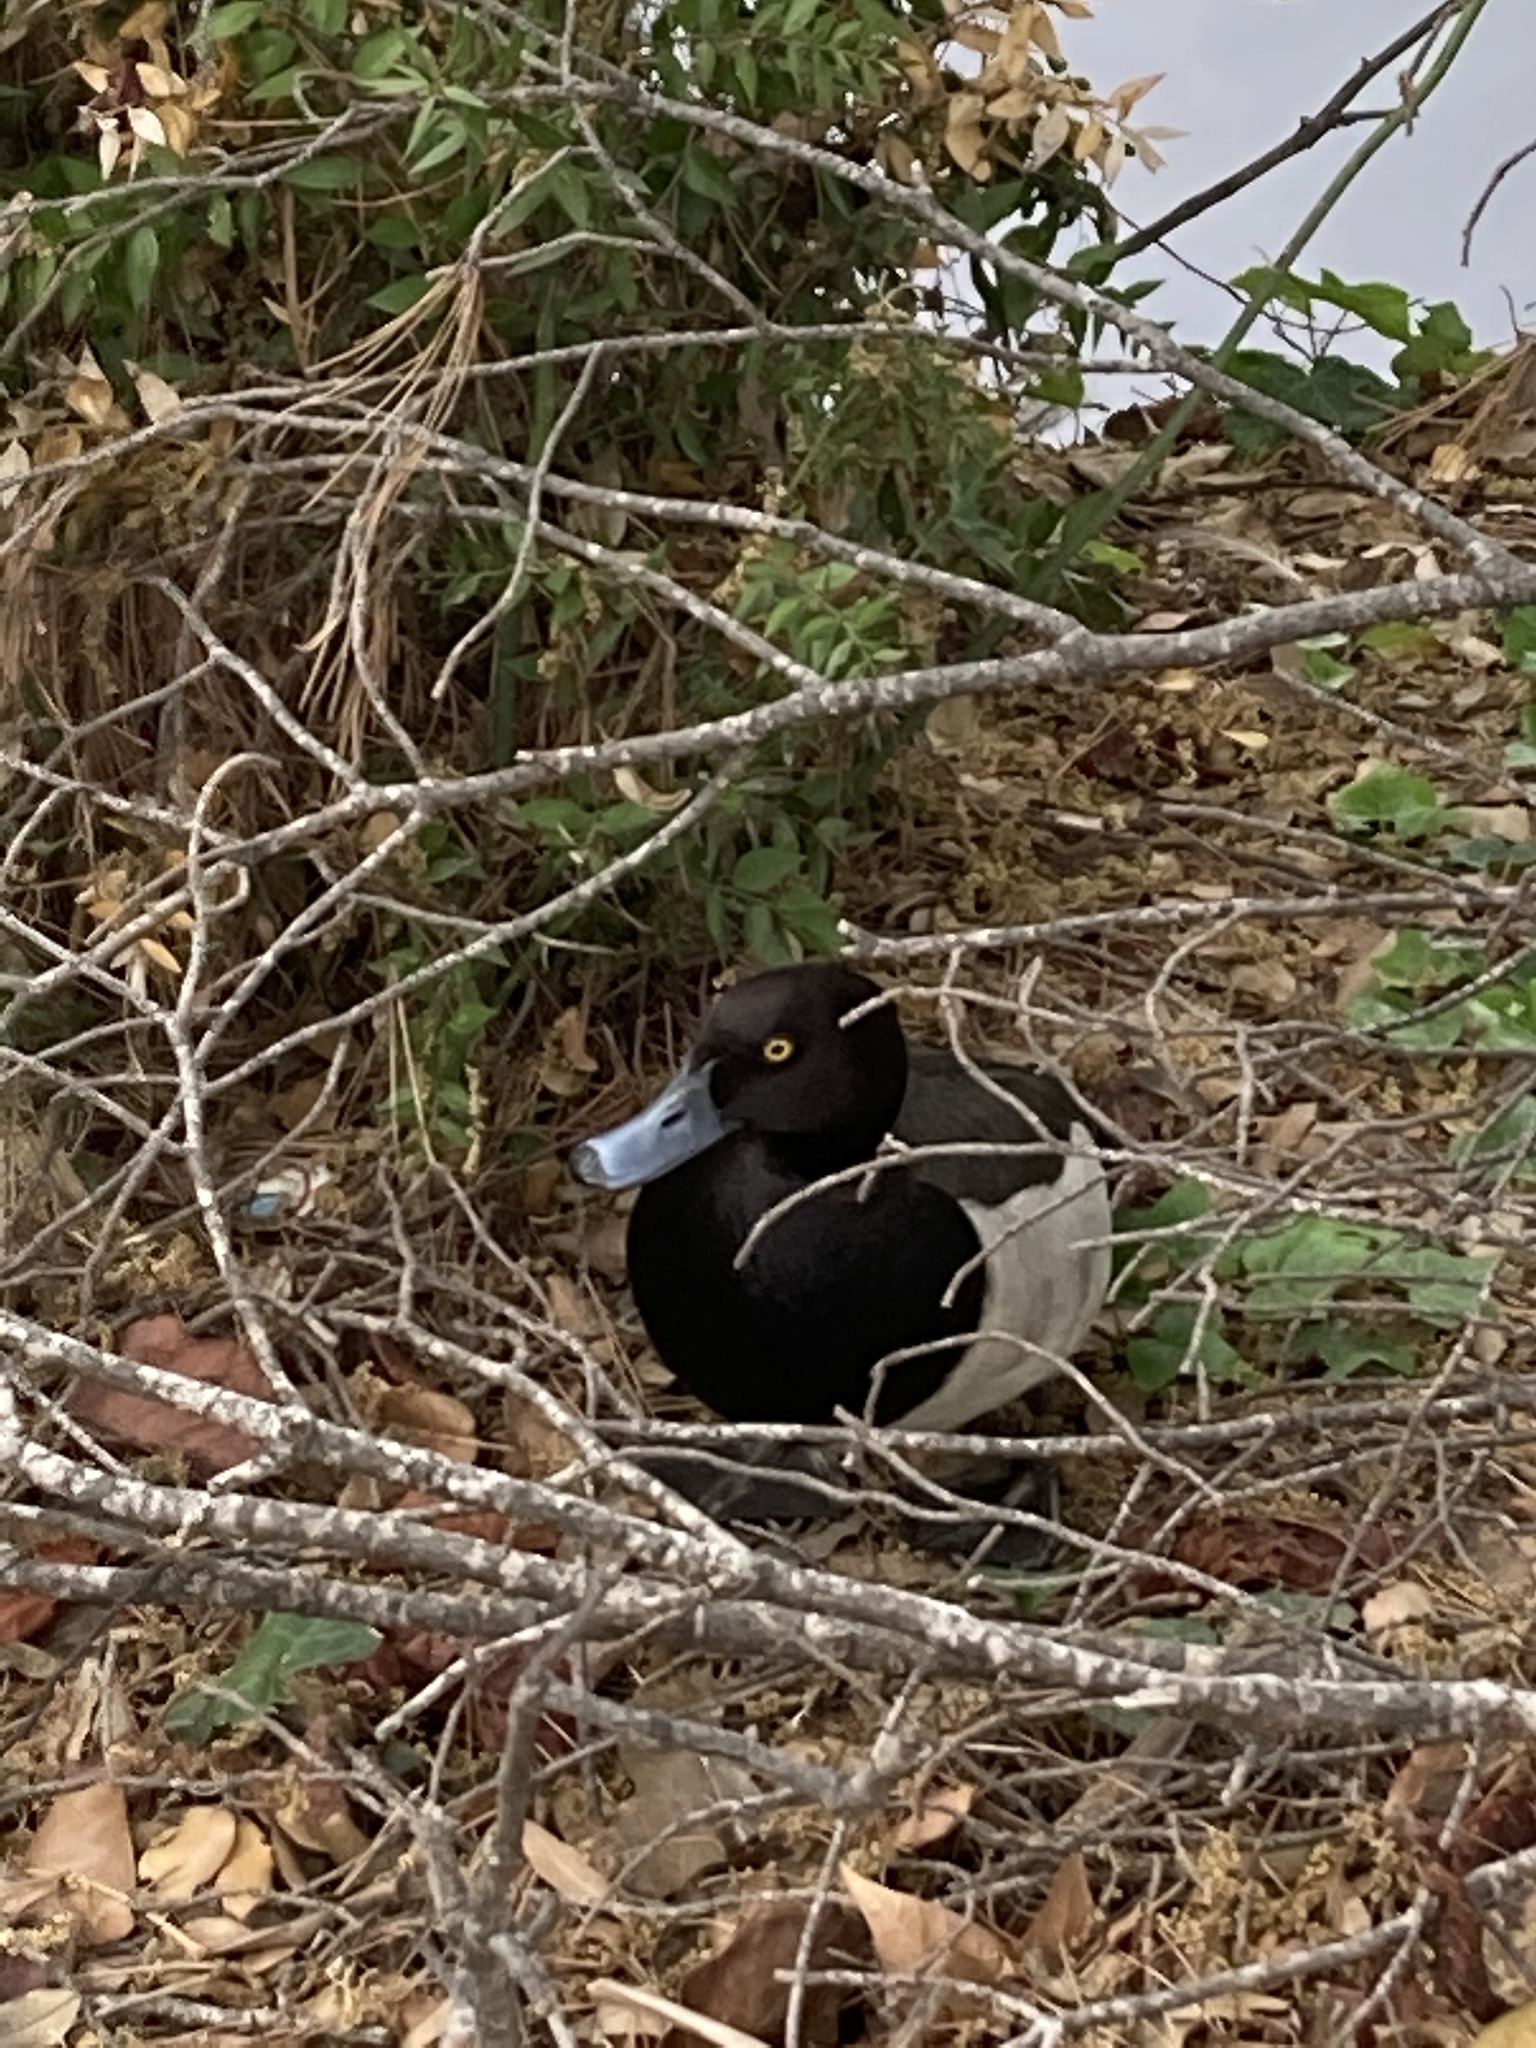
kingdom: Animalia
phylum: Chordata
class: Aves
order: Anseriformes
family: Anatidae
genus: Aythya
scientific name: Aythya fuligula
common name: Tufted duck
